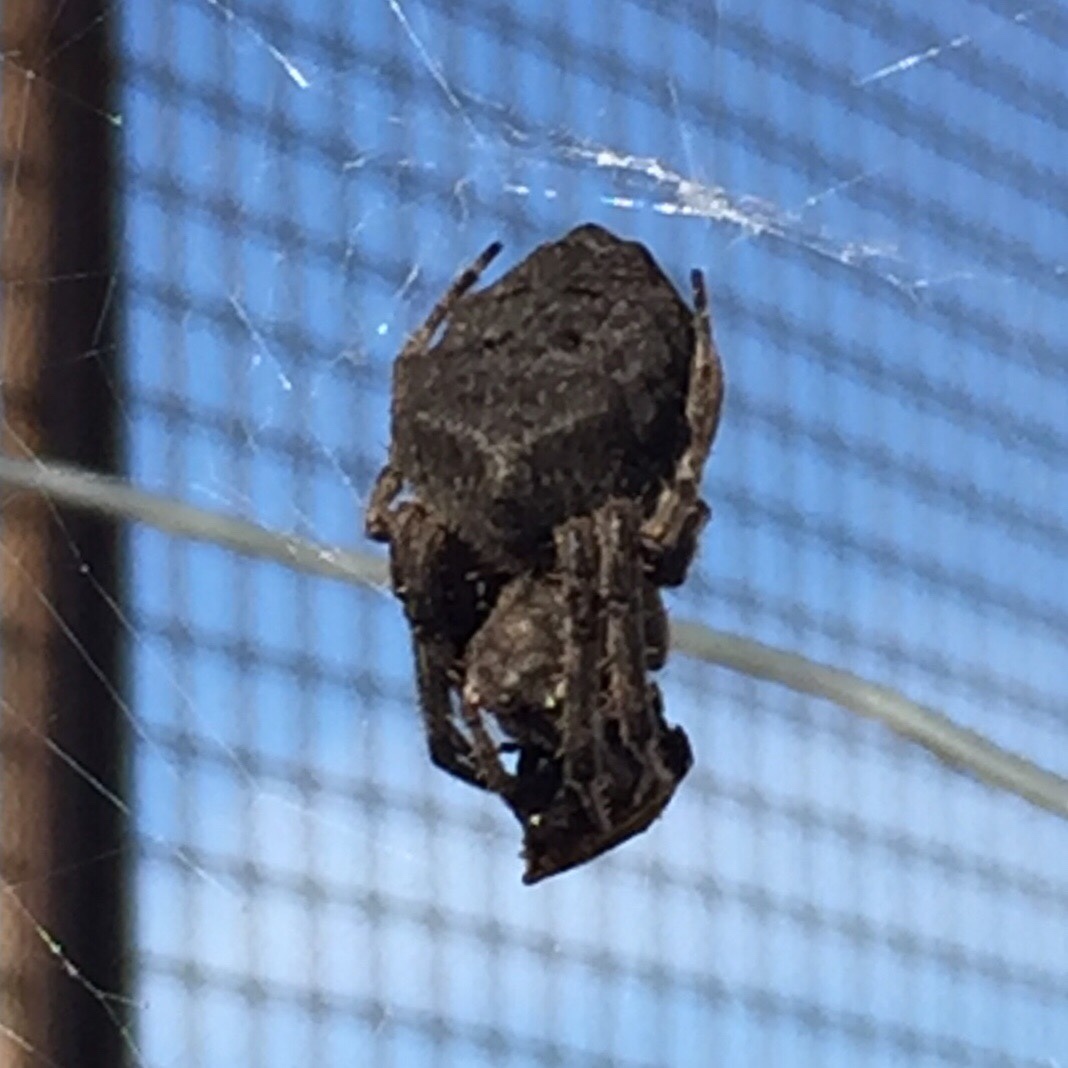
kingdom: Animalia
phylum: Arthropoda
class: Arachnida
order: Araneae
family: Araneidae
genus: Parawixia
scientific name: Parawixia audax
